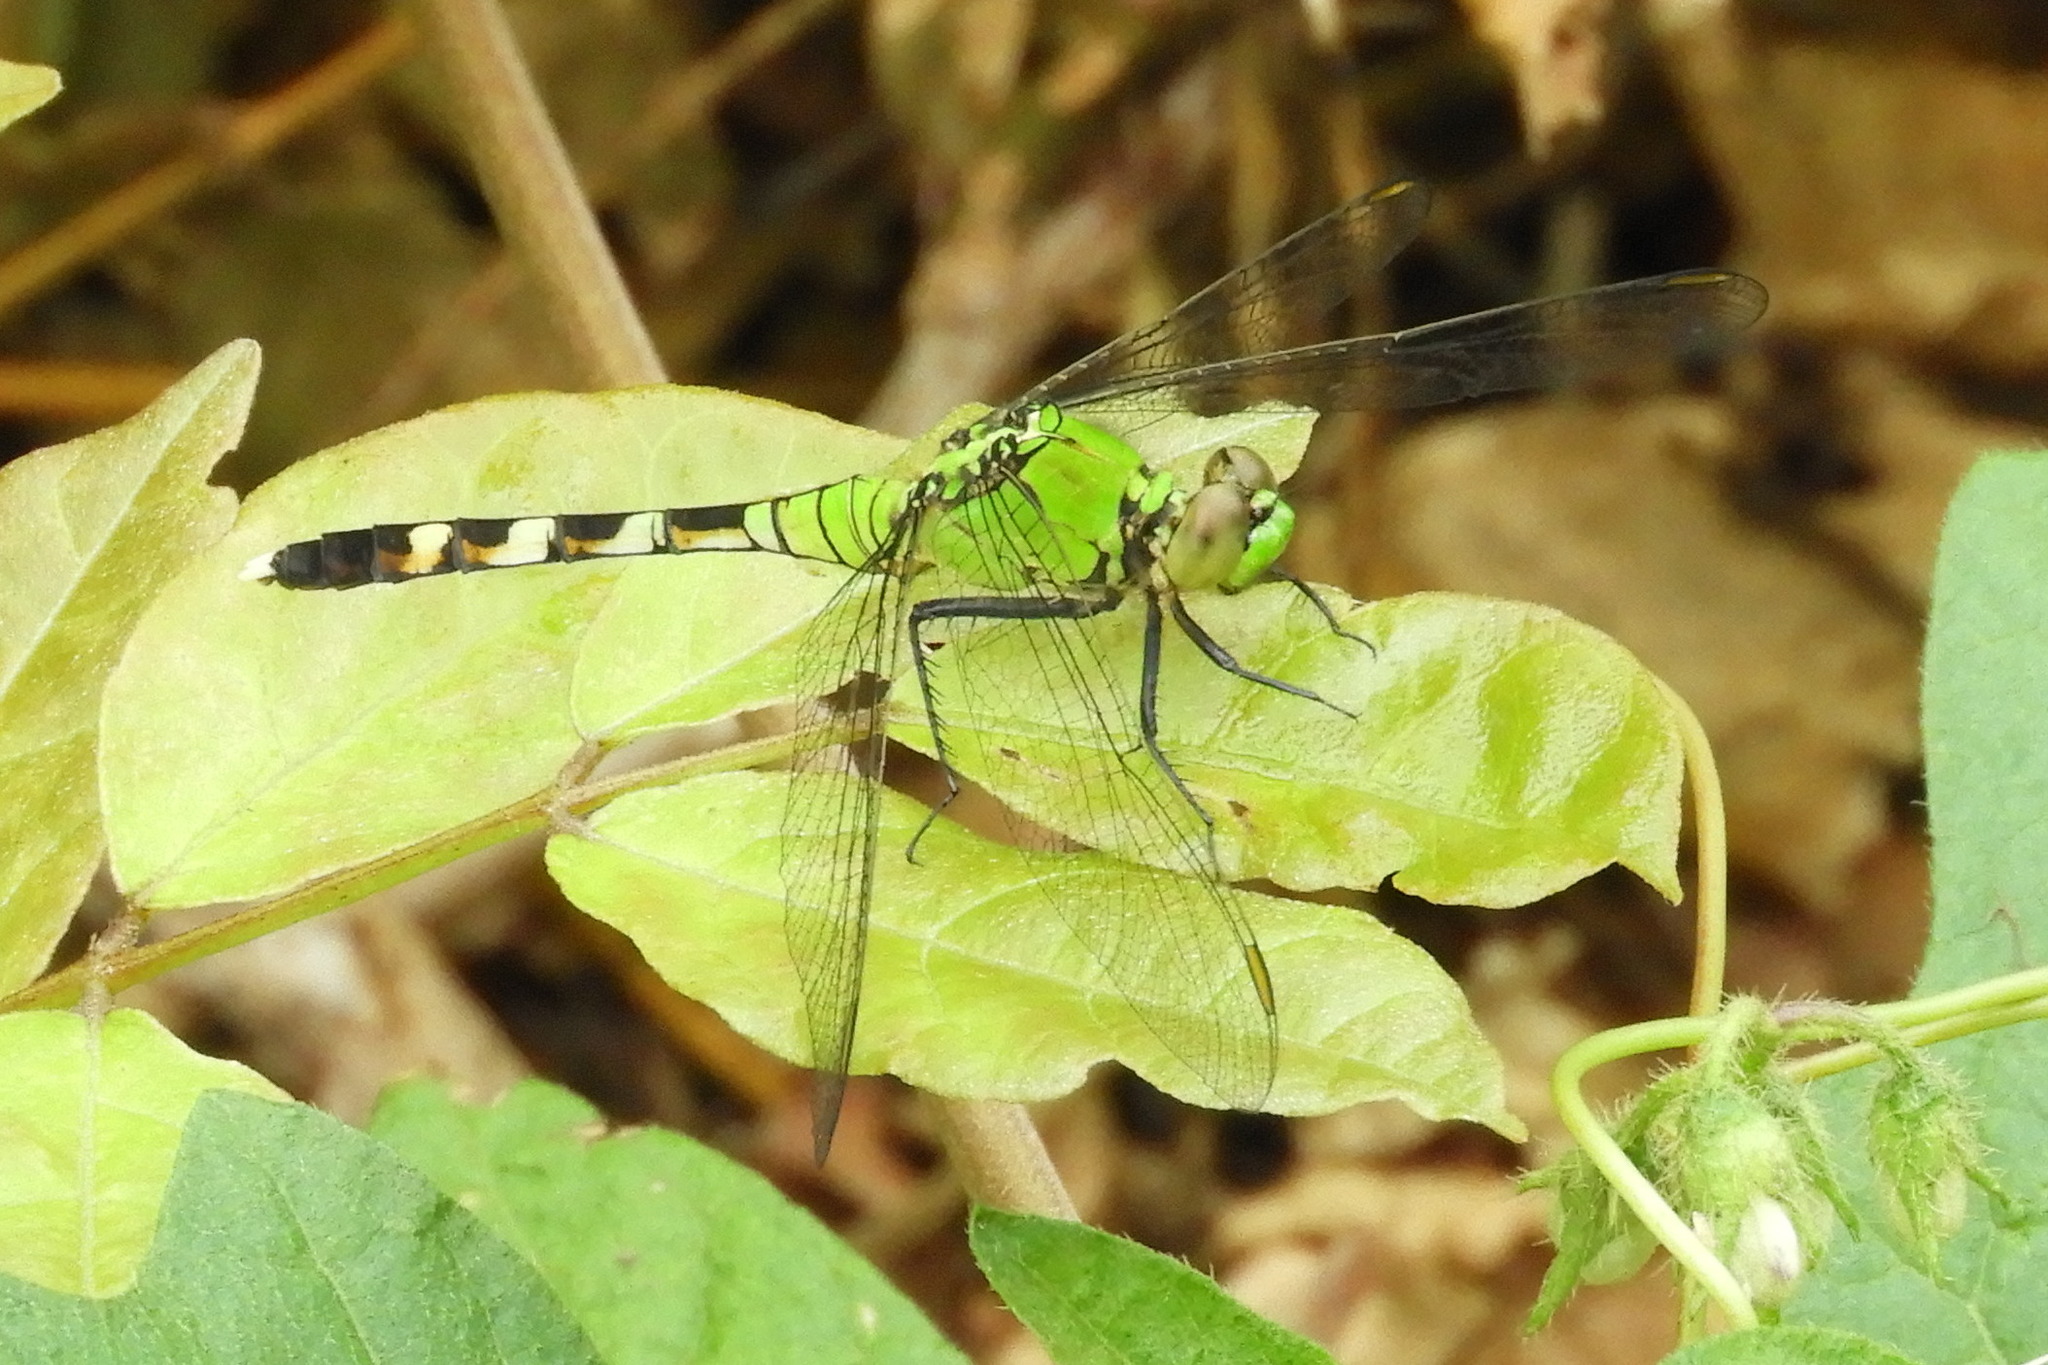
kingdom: Animalia
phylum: Arthropoda
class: Insecta
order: Odonata
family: Libellulidae
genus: Erythemis
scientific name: Erythemis simplicicollis
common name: Eastern pondhawk
